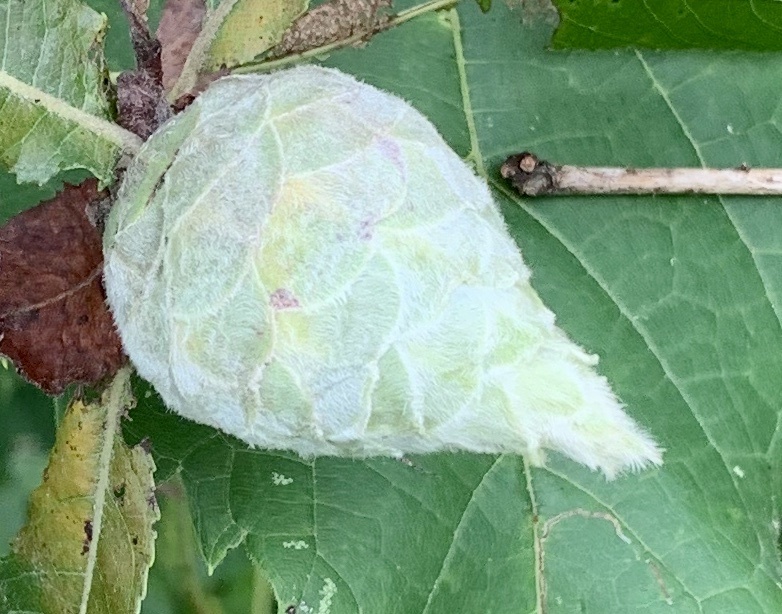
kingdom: Animalia
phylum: Arthropoda
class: Insecta
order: Diptera
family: Cecidomyiidae
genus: Rabdophaga
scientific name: Rabdophaga strobiloides
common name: Willow pinecone gall midge
